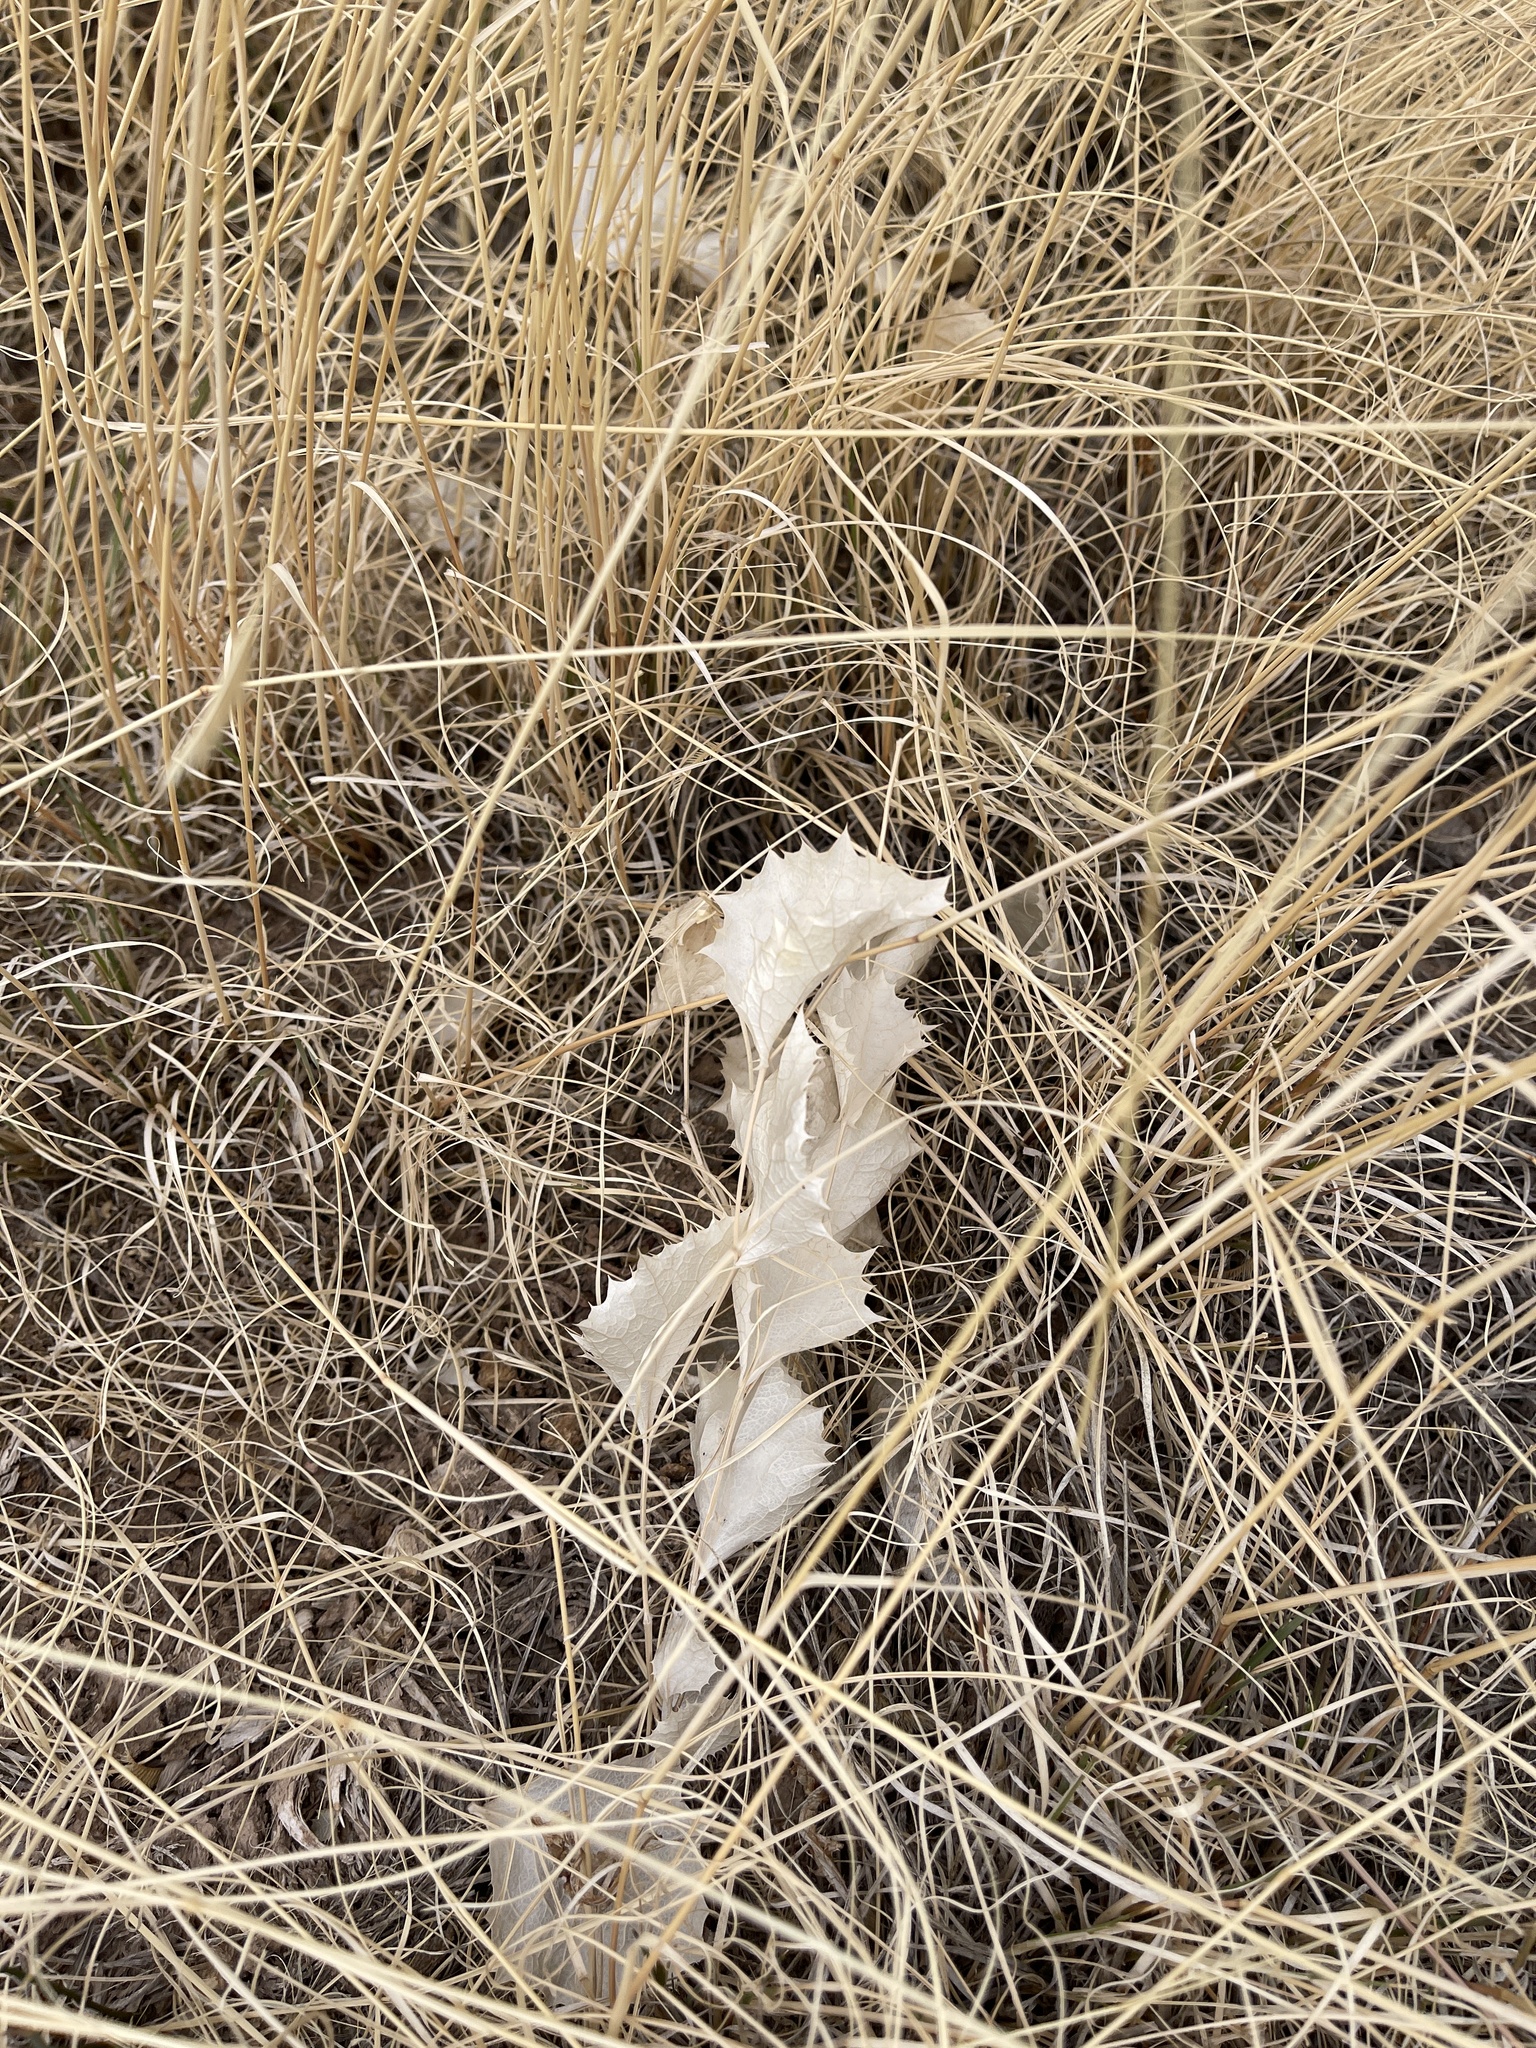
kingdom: Plantae
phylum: Tracheophyta
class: Magnoliopsida
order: Asterales
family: Asteraceae
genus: Acourtia
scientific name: Acourtia nana
